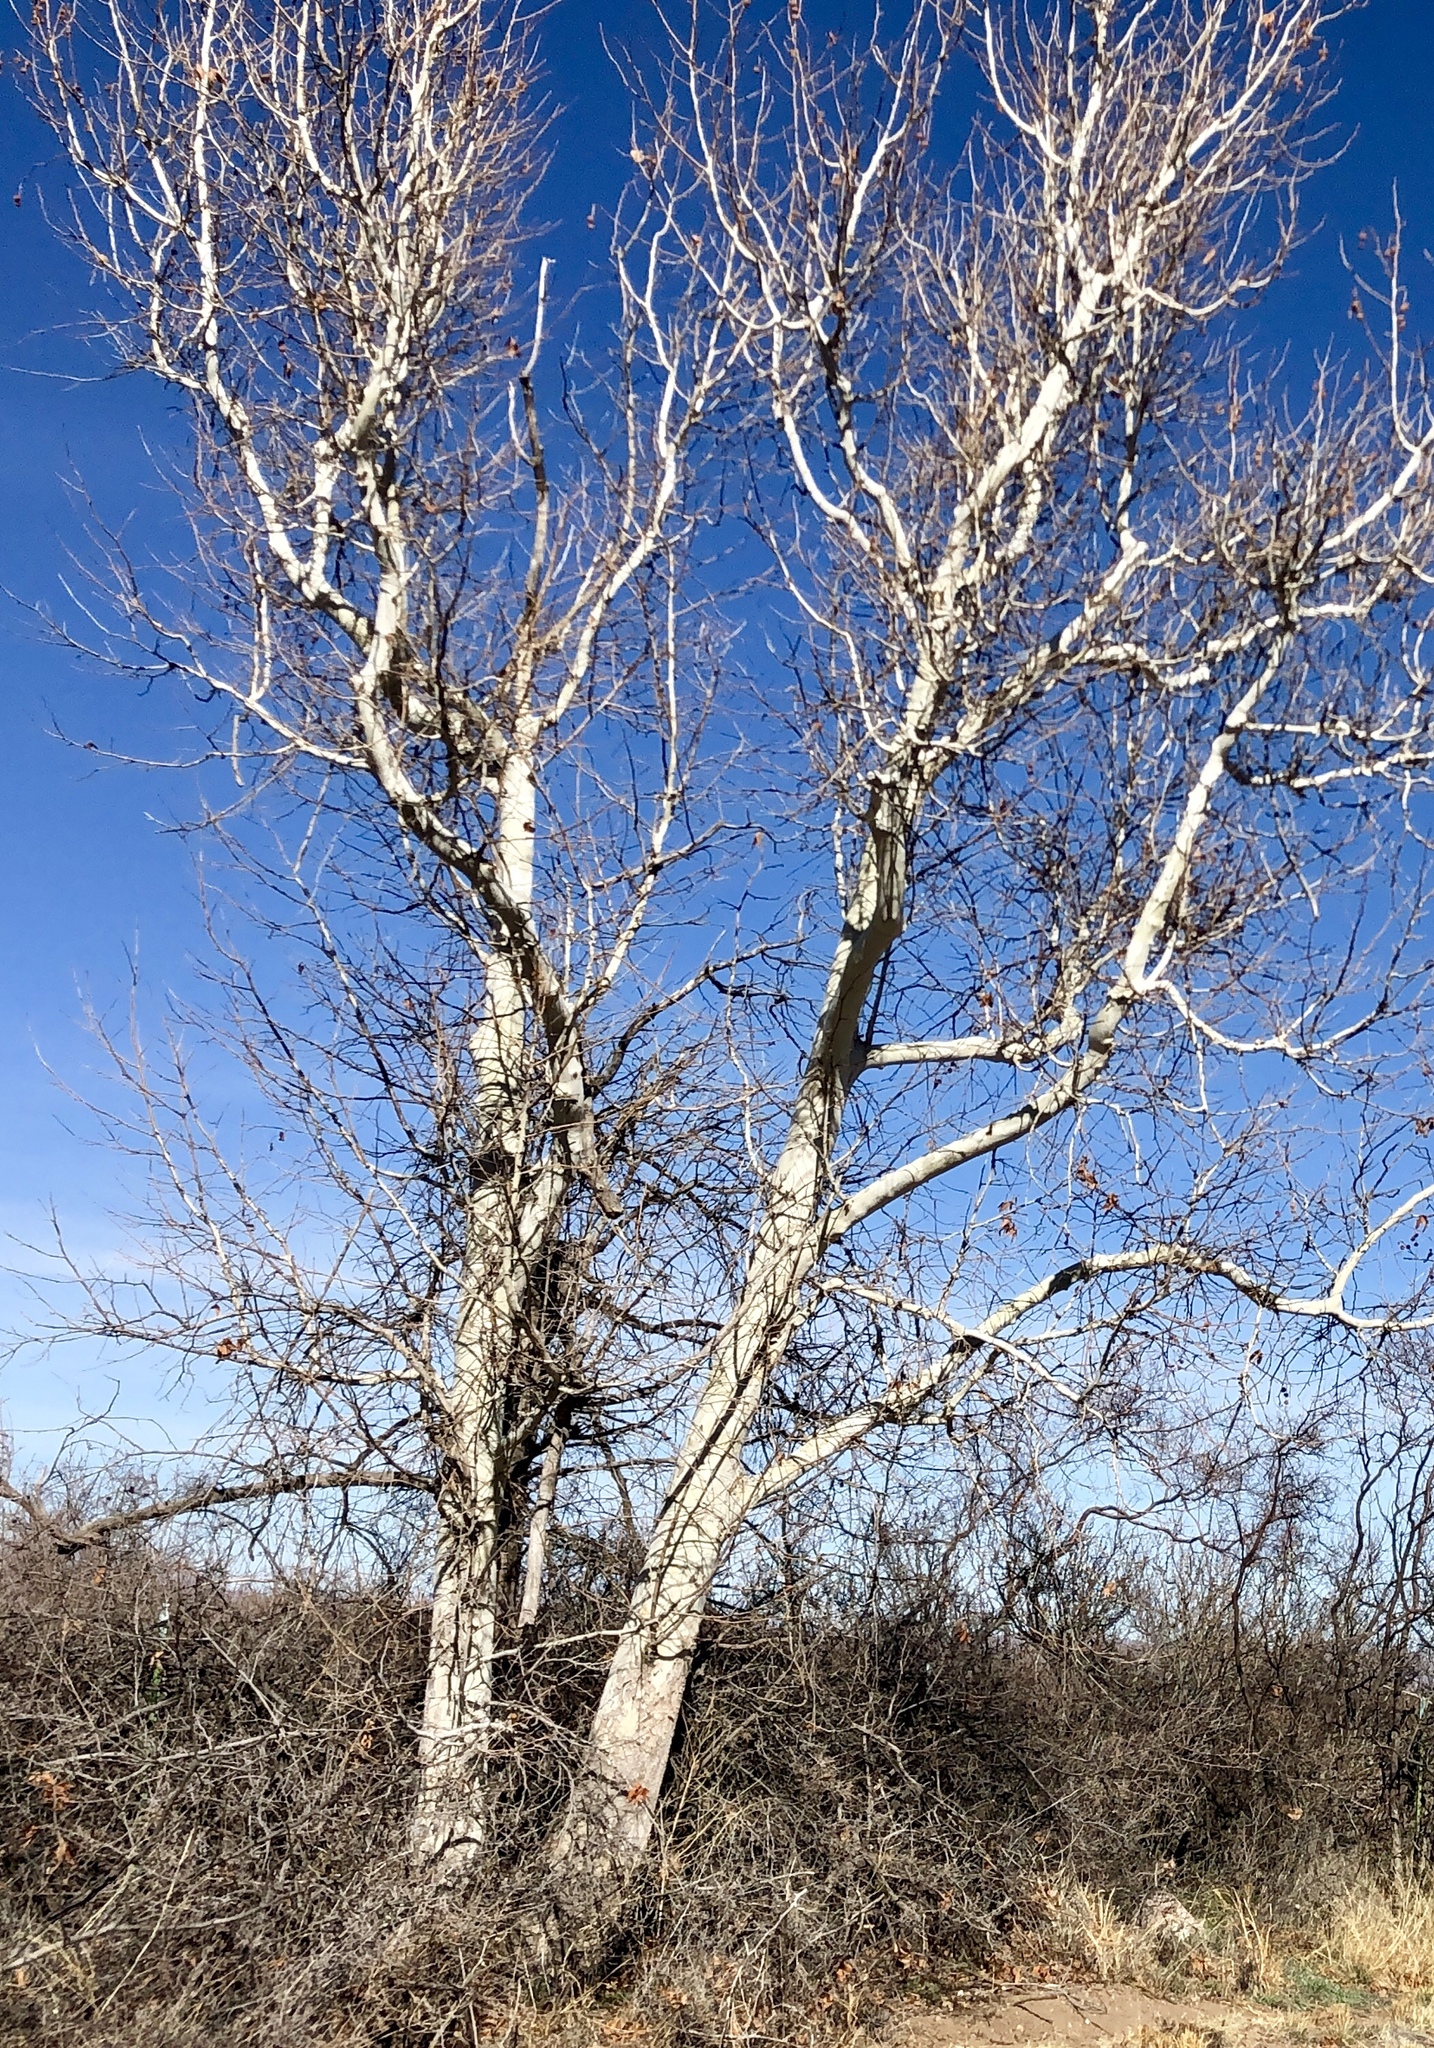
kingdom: Plantae
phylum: Tracheophyta
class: Magnoliopsida
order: Proteales
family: Platanaceae
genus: Platanus
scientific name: Platanus wrightii
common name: Arizona sycamore
